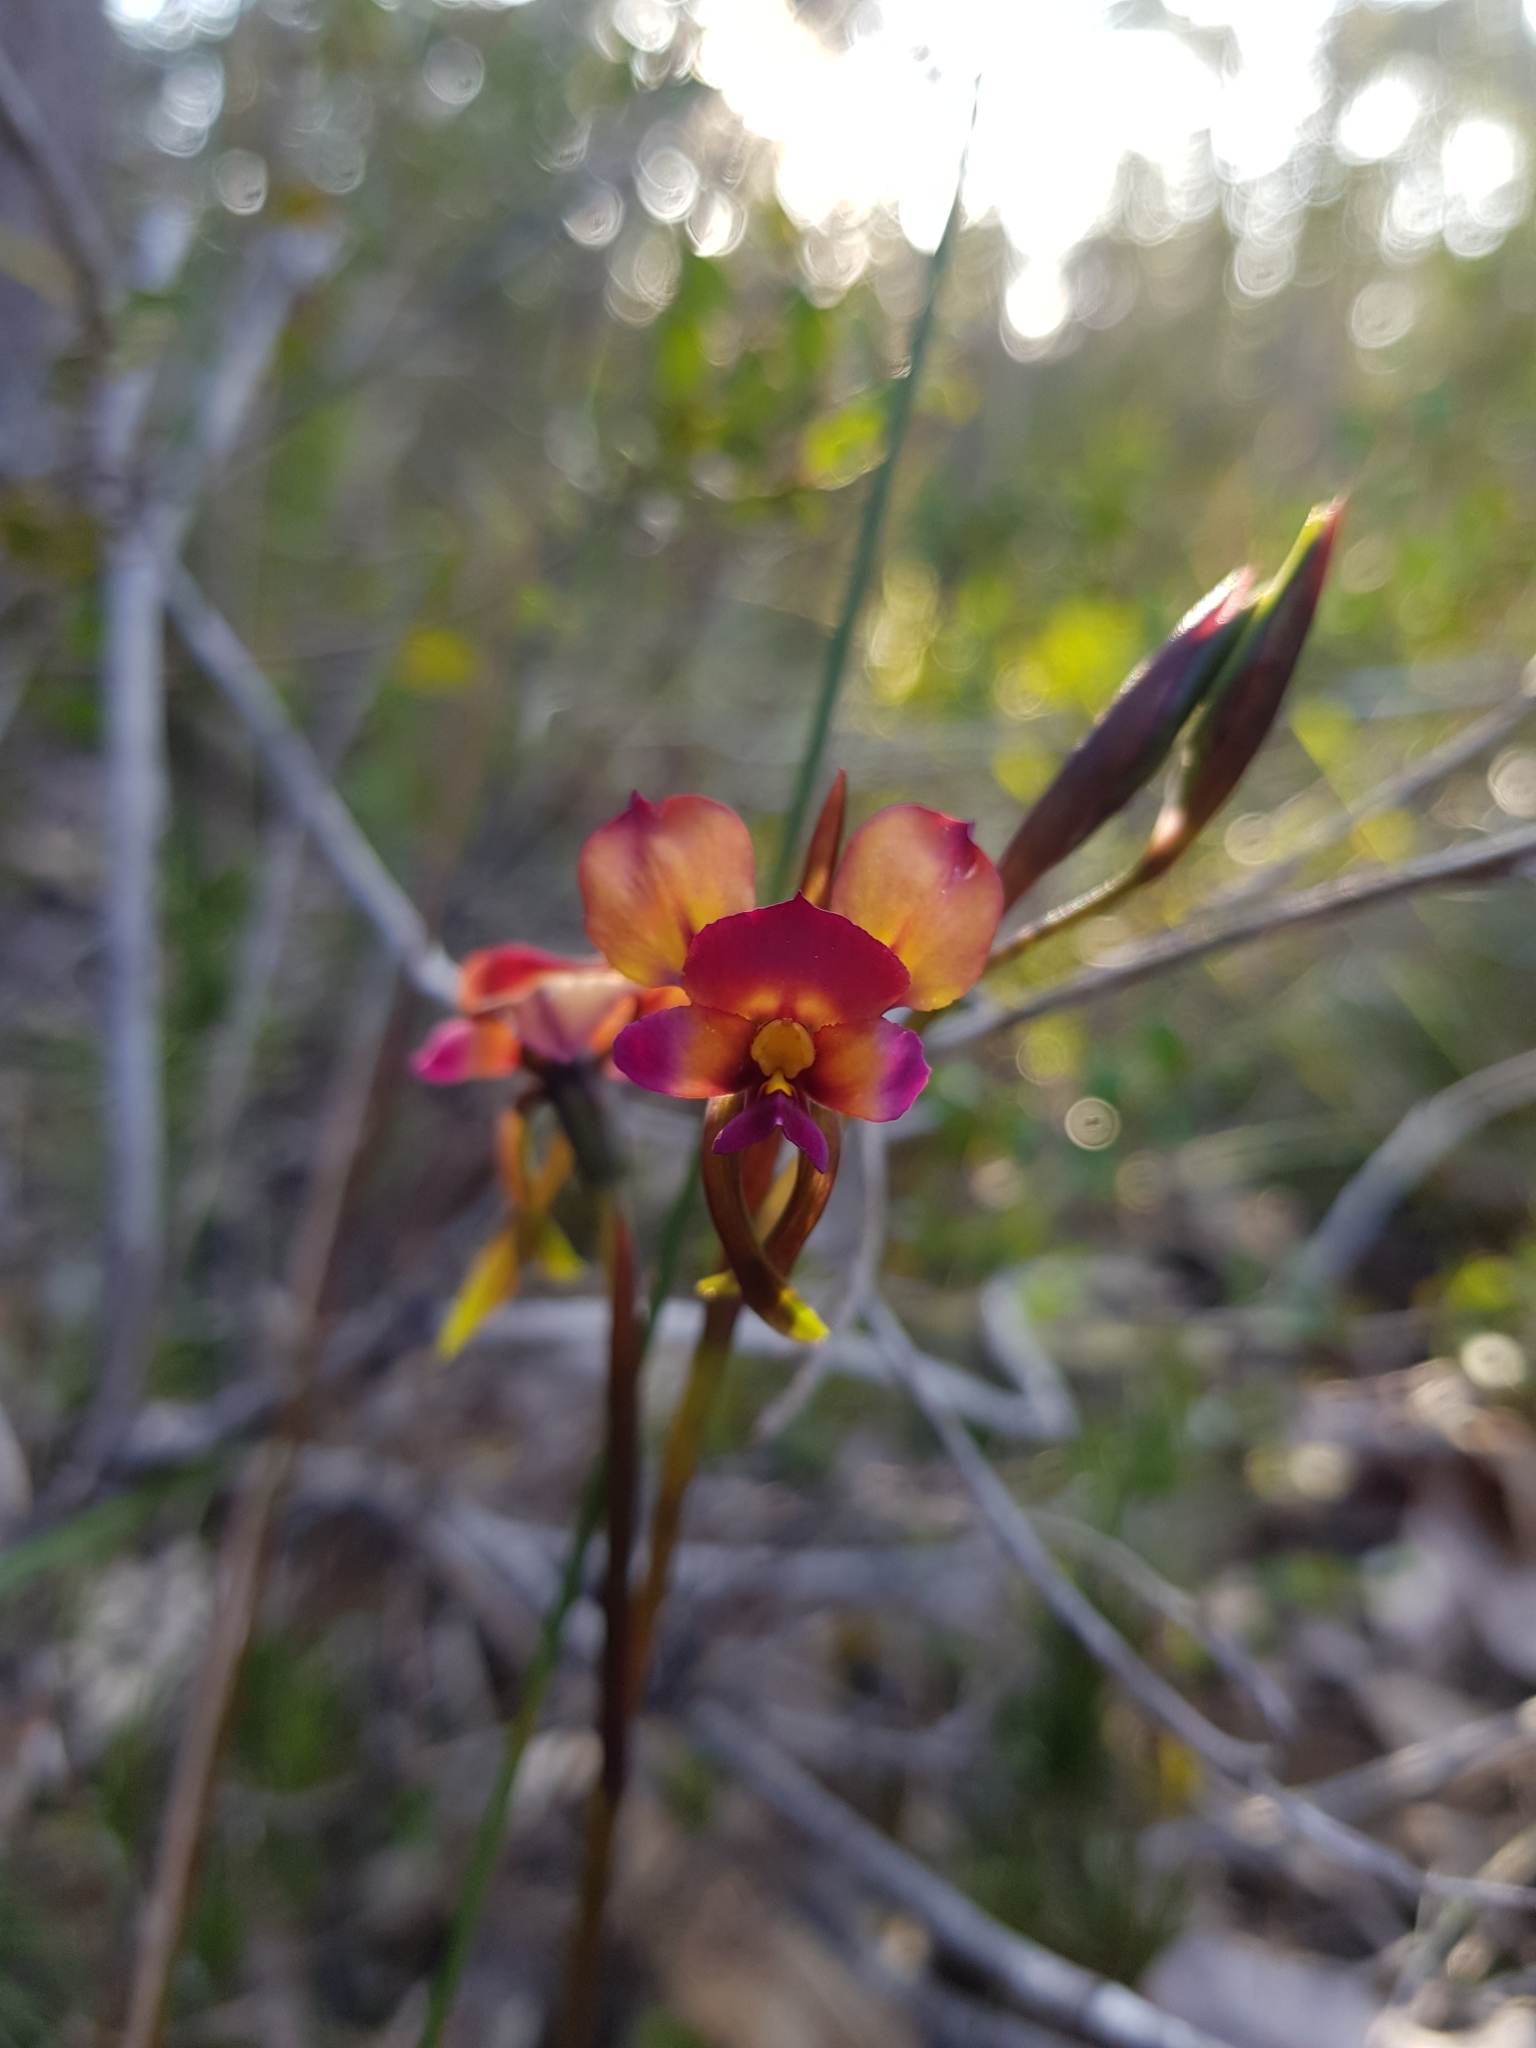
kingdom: Plantae
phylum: Tracheophyta
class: Liliopsida
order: Asparagales
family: Orchidaceae
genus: Diuris
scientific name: Diuris longifolia
